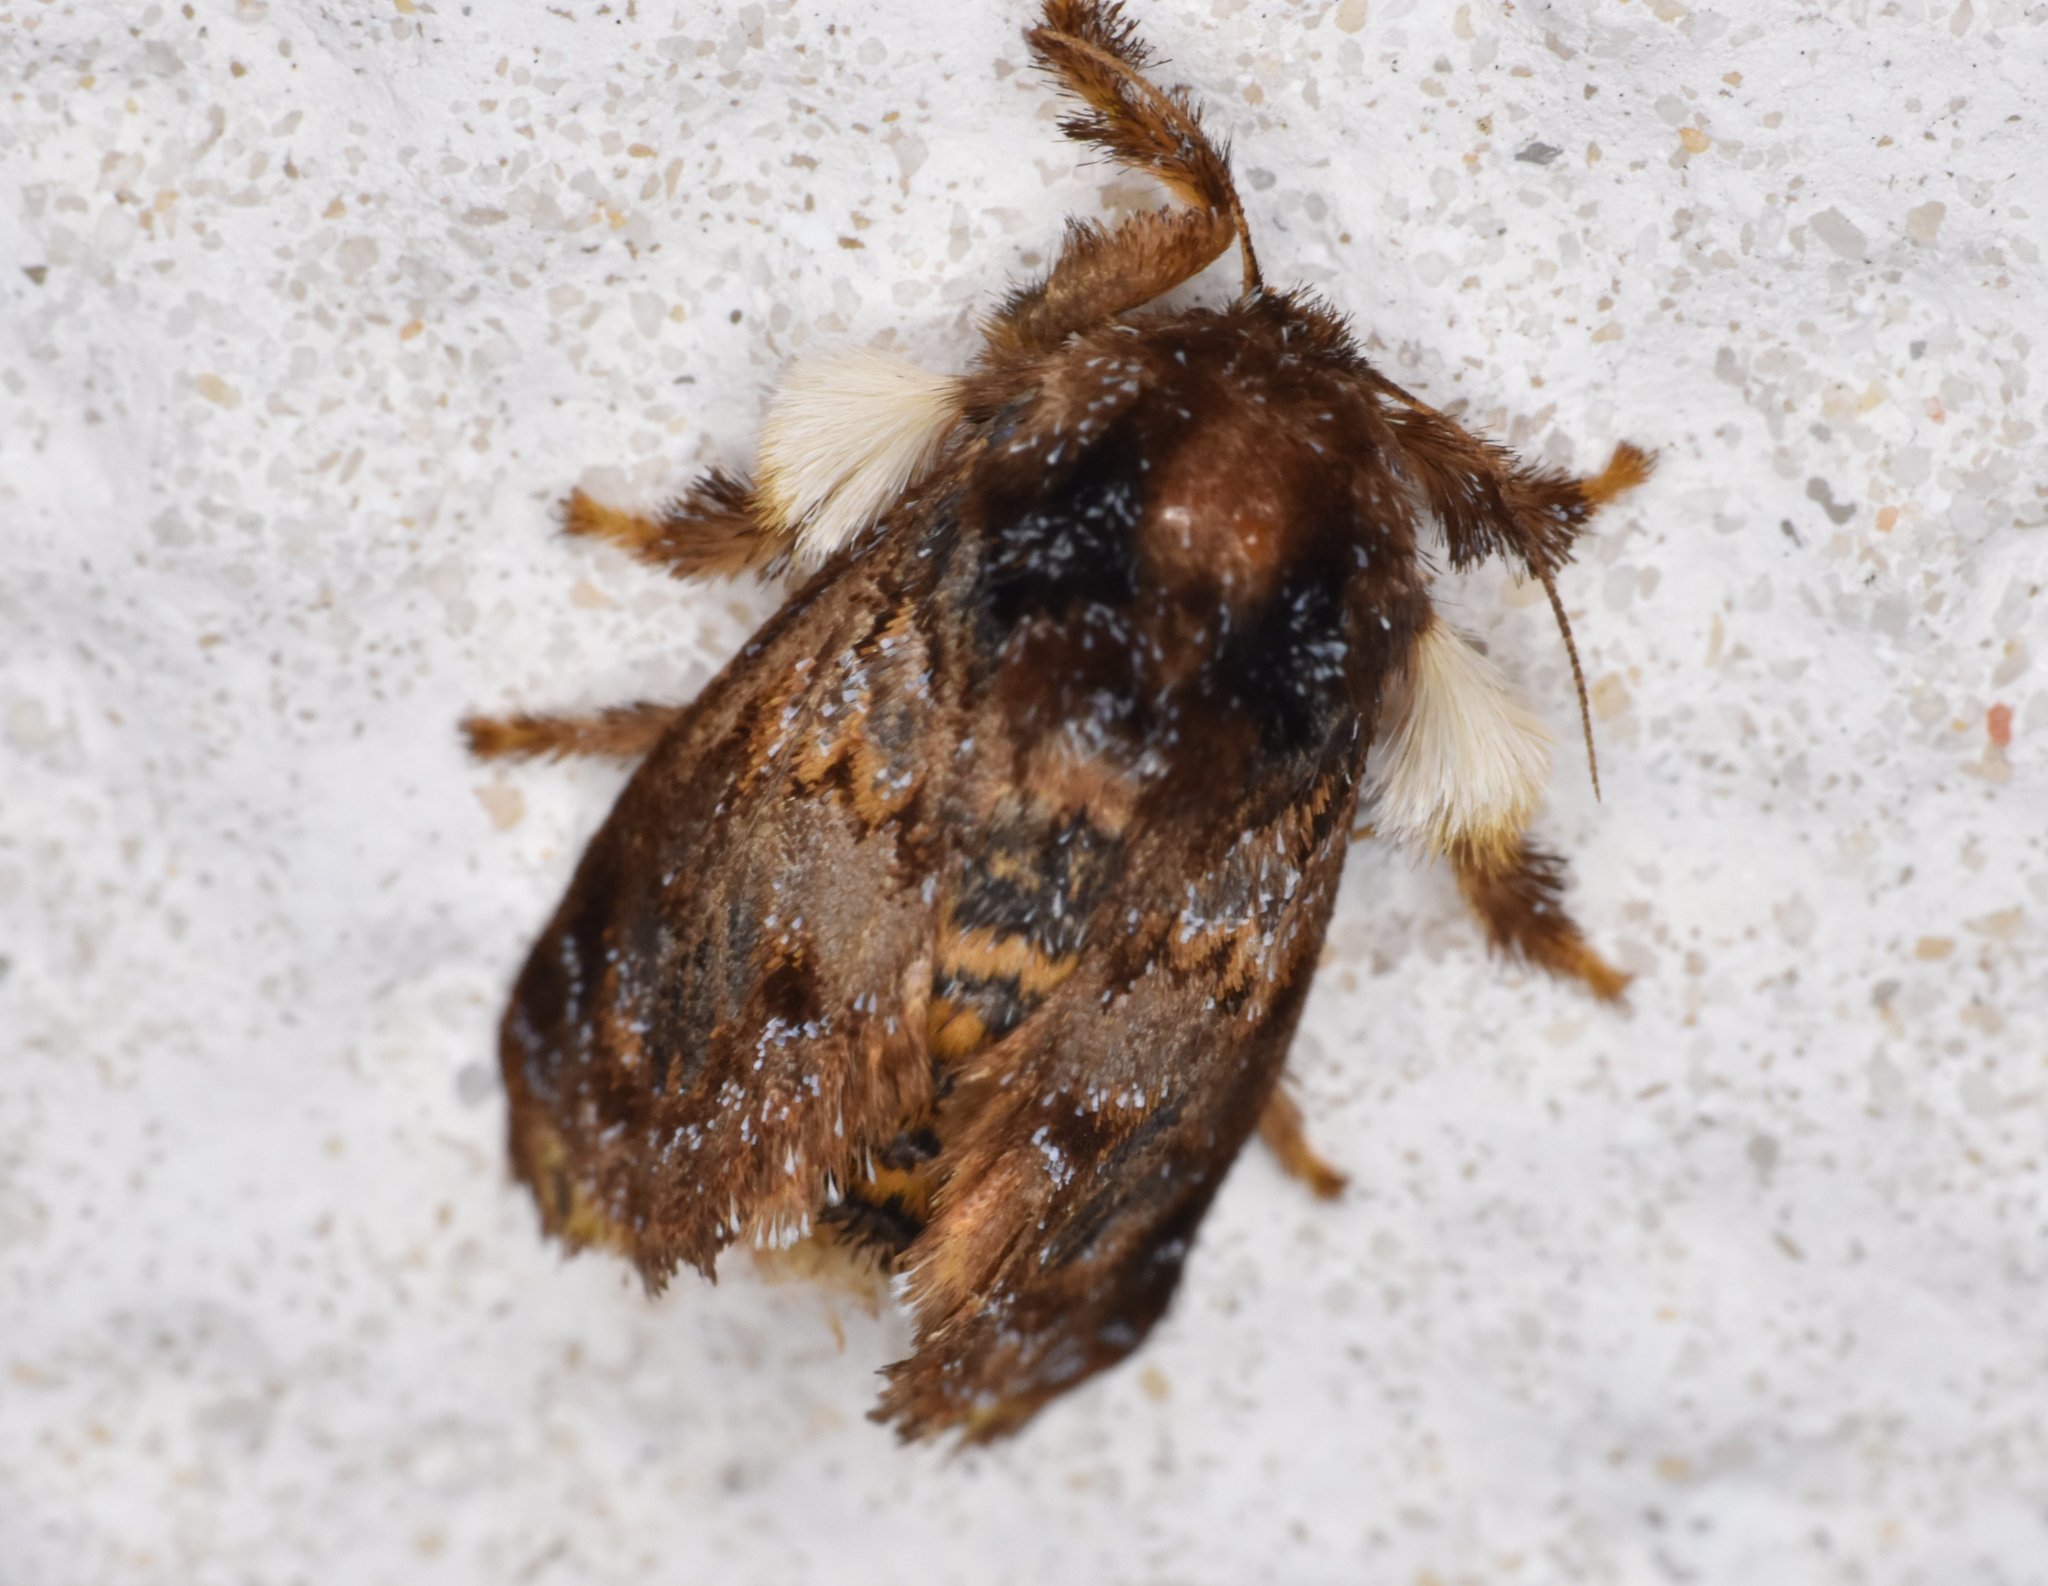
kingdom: Animalia
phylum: Arthropoda
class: Insecta
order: Lepidoptera
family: Limacodidae
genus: Phobetron
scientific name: Phobetron pithecium
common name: Hag moth
